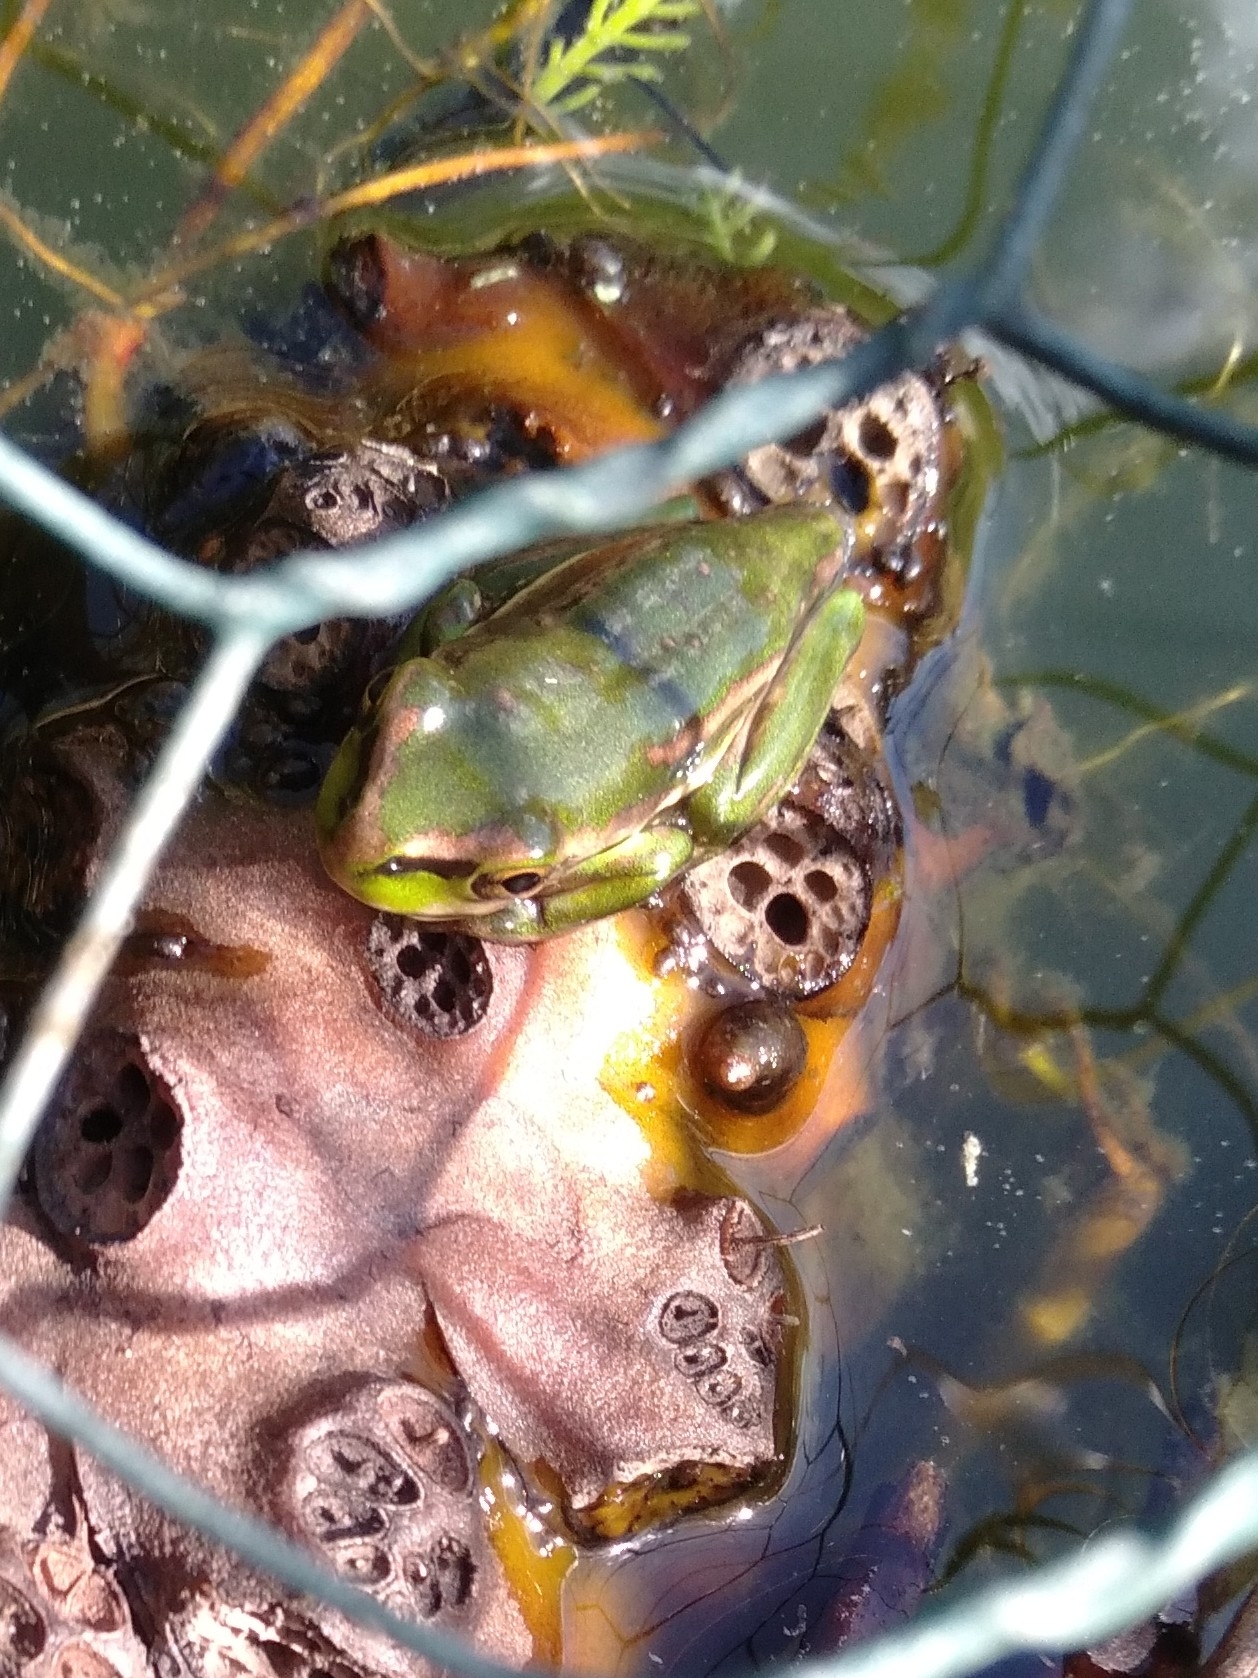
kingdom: Animalia
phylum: Chordata
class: Amphibia
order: Anura
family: Pelodryadidae
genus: Ranoidea
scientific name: Ranoidea aurea
